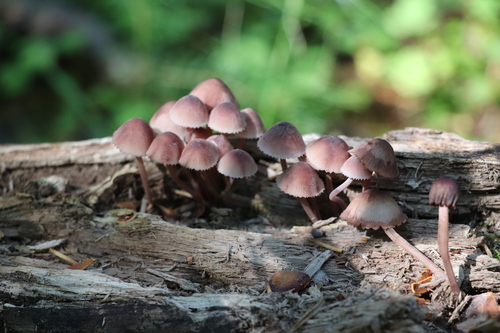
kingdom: Fungi
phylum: Basidiomycota
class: Agaricomycetes
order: Agaricales
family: Mycenaceae
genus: Mycena
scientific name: Mycena haematopus
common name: Burgundydrop bonnet
